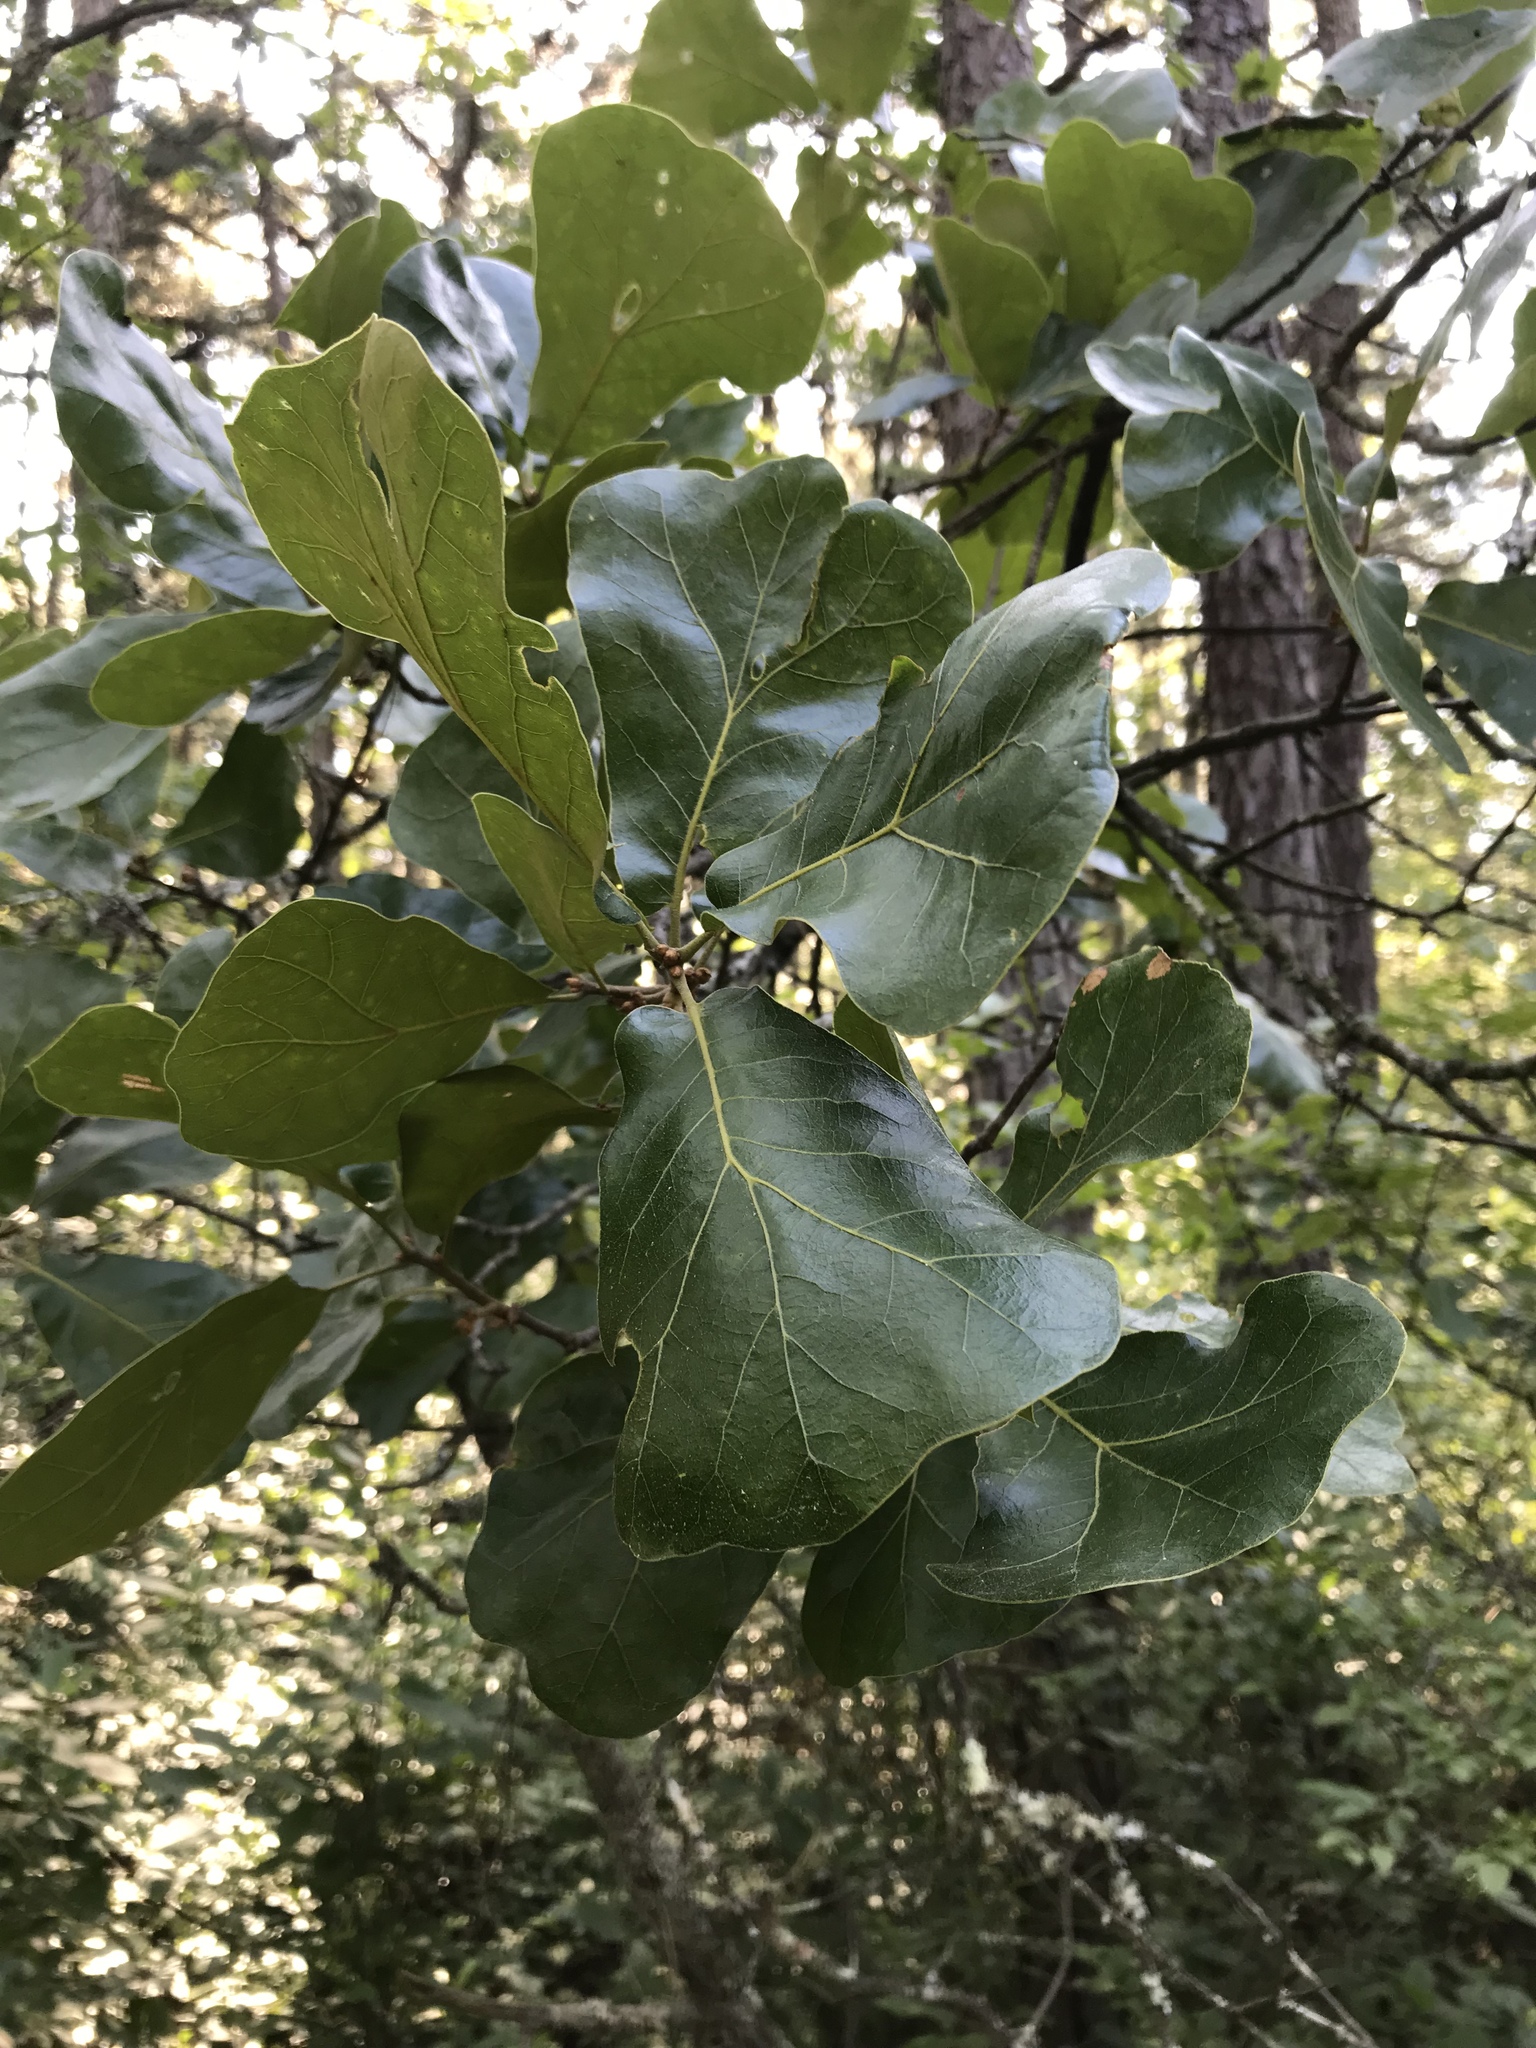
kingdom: Plantae
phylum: Tracheophyta
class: Magnoliopsida
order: Fagales
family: Fagaceae
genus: Quercus
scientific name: Quercus marilandica
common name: Blackjack oak
